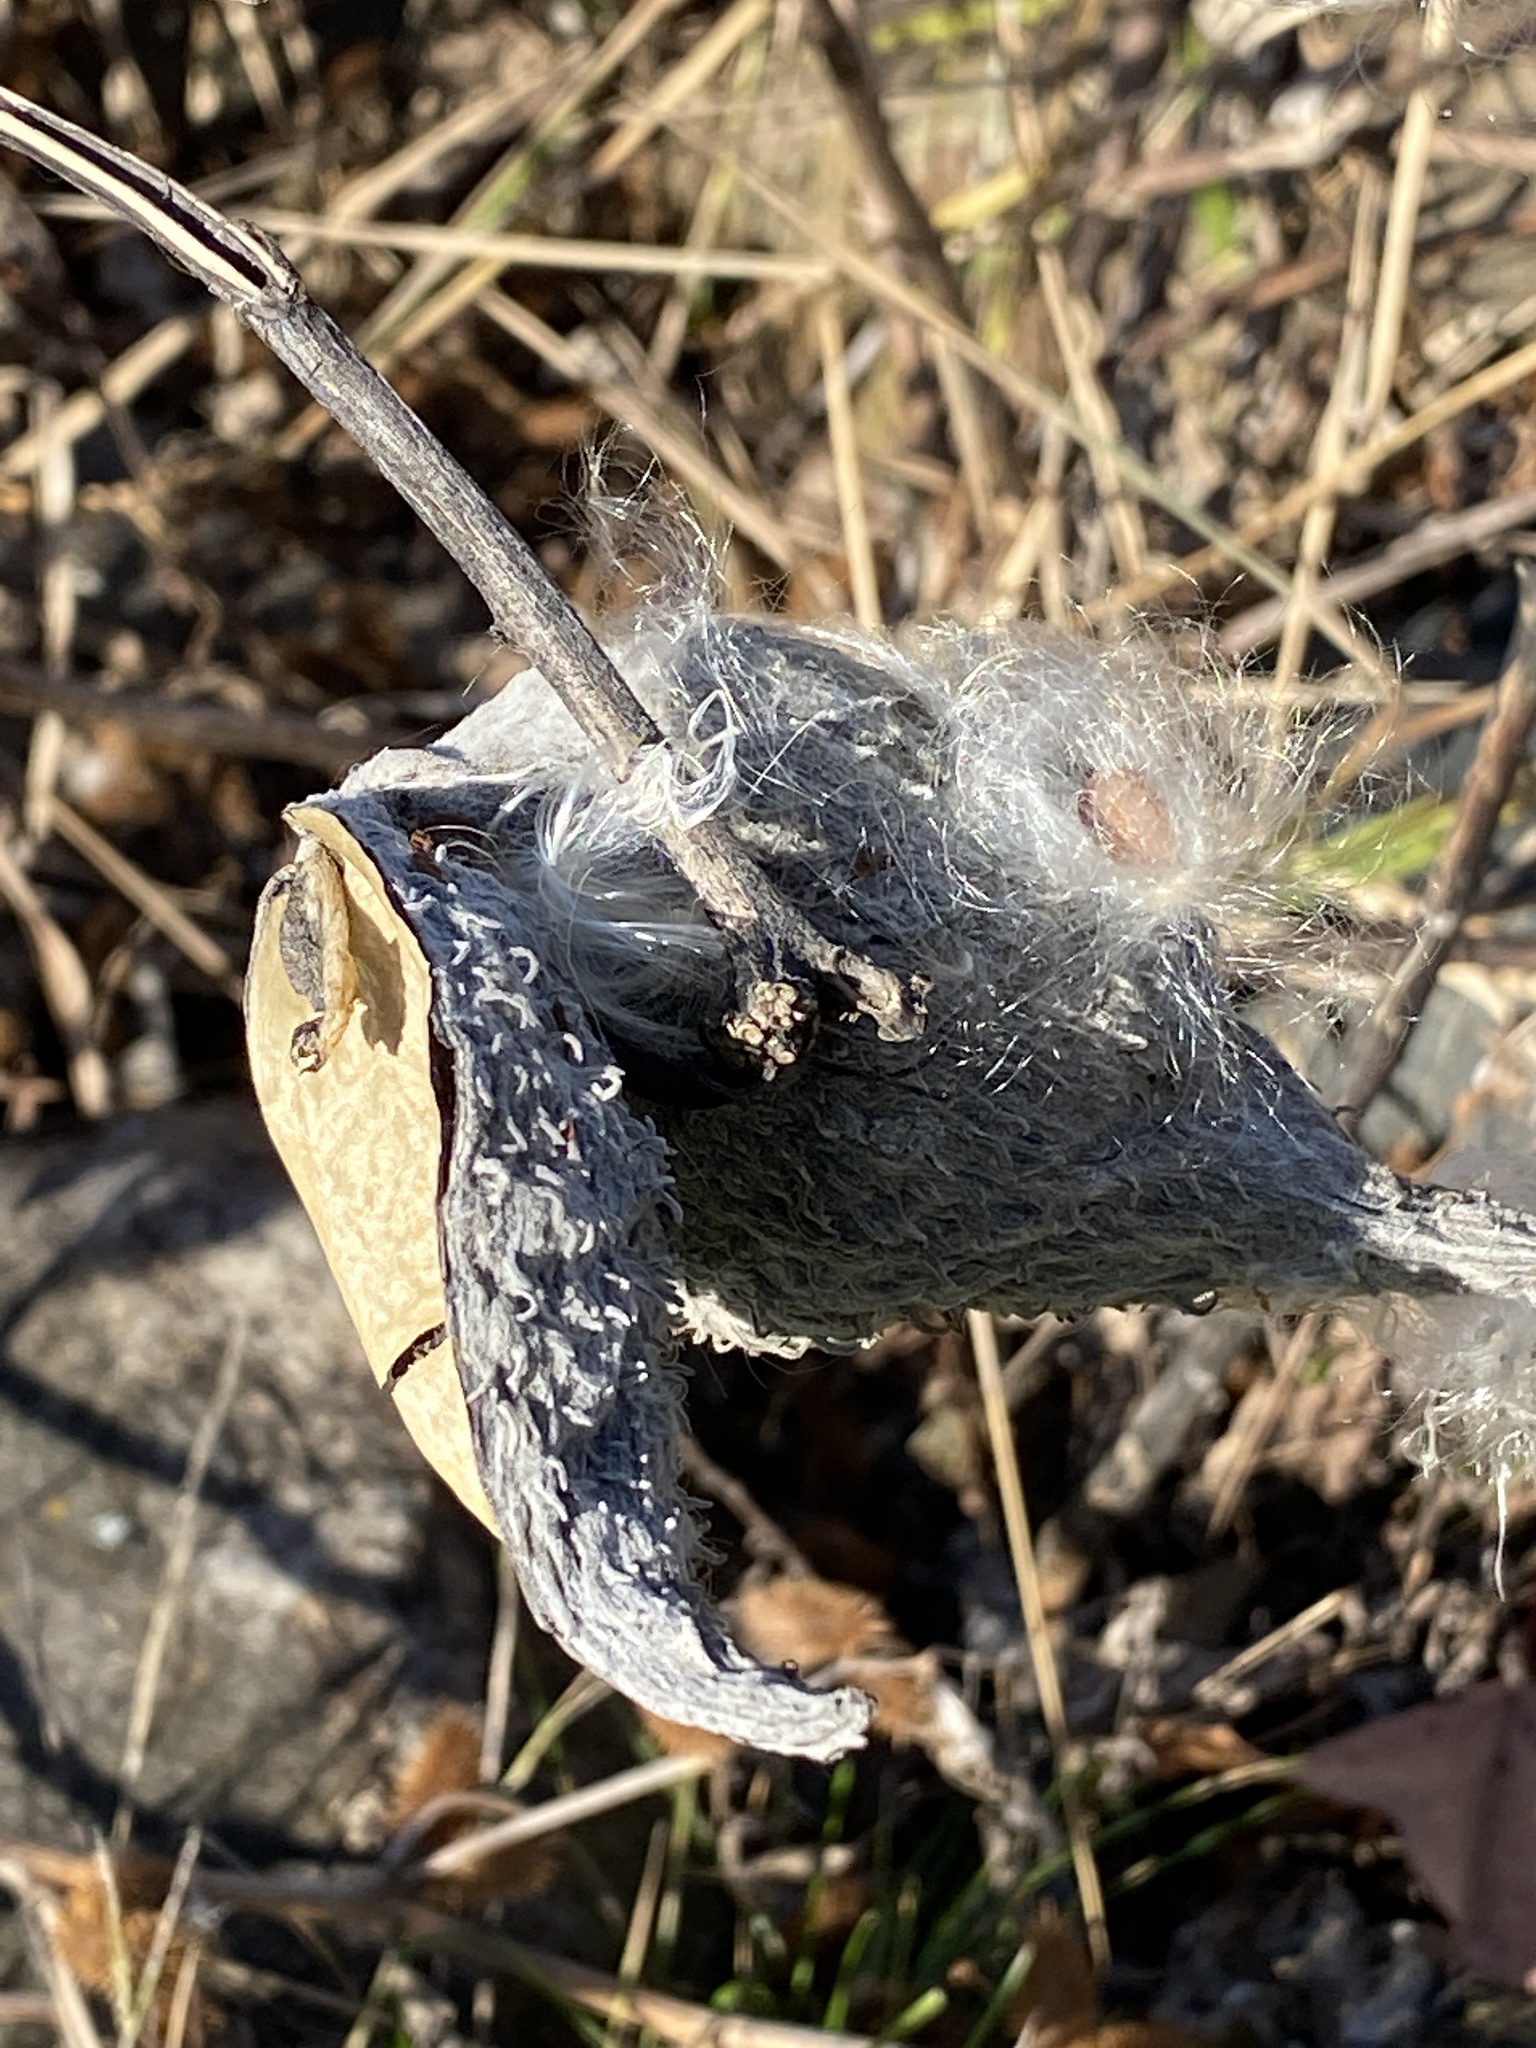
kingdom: Plantae
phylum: Tracheophyta
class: Magnoliopsida
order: Gentianales
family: Apocynaceae
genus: Asclepias
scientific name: Asclepias syriaca
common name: Common milkweed
